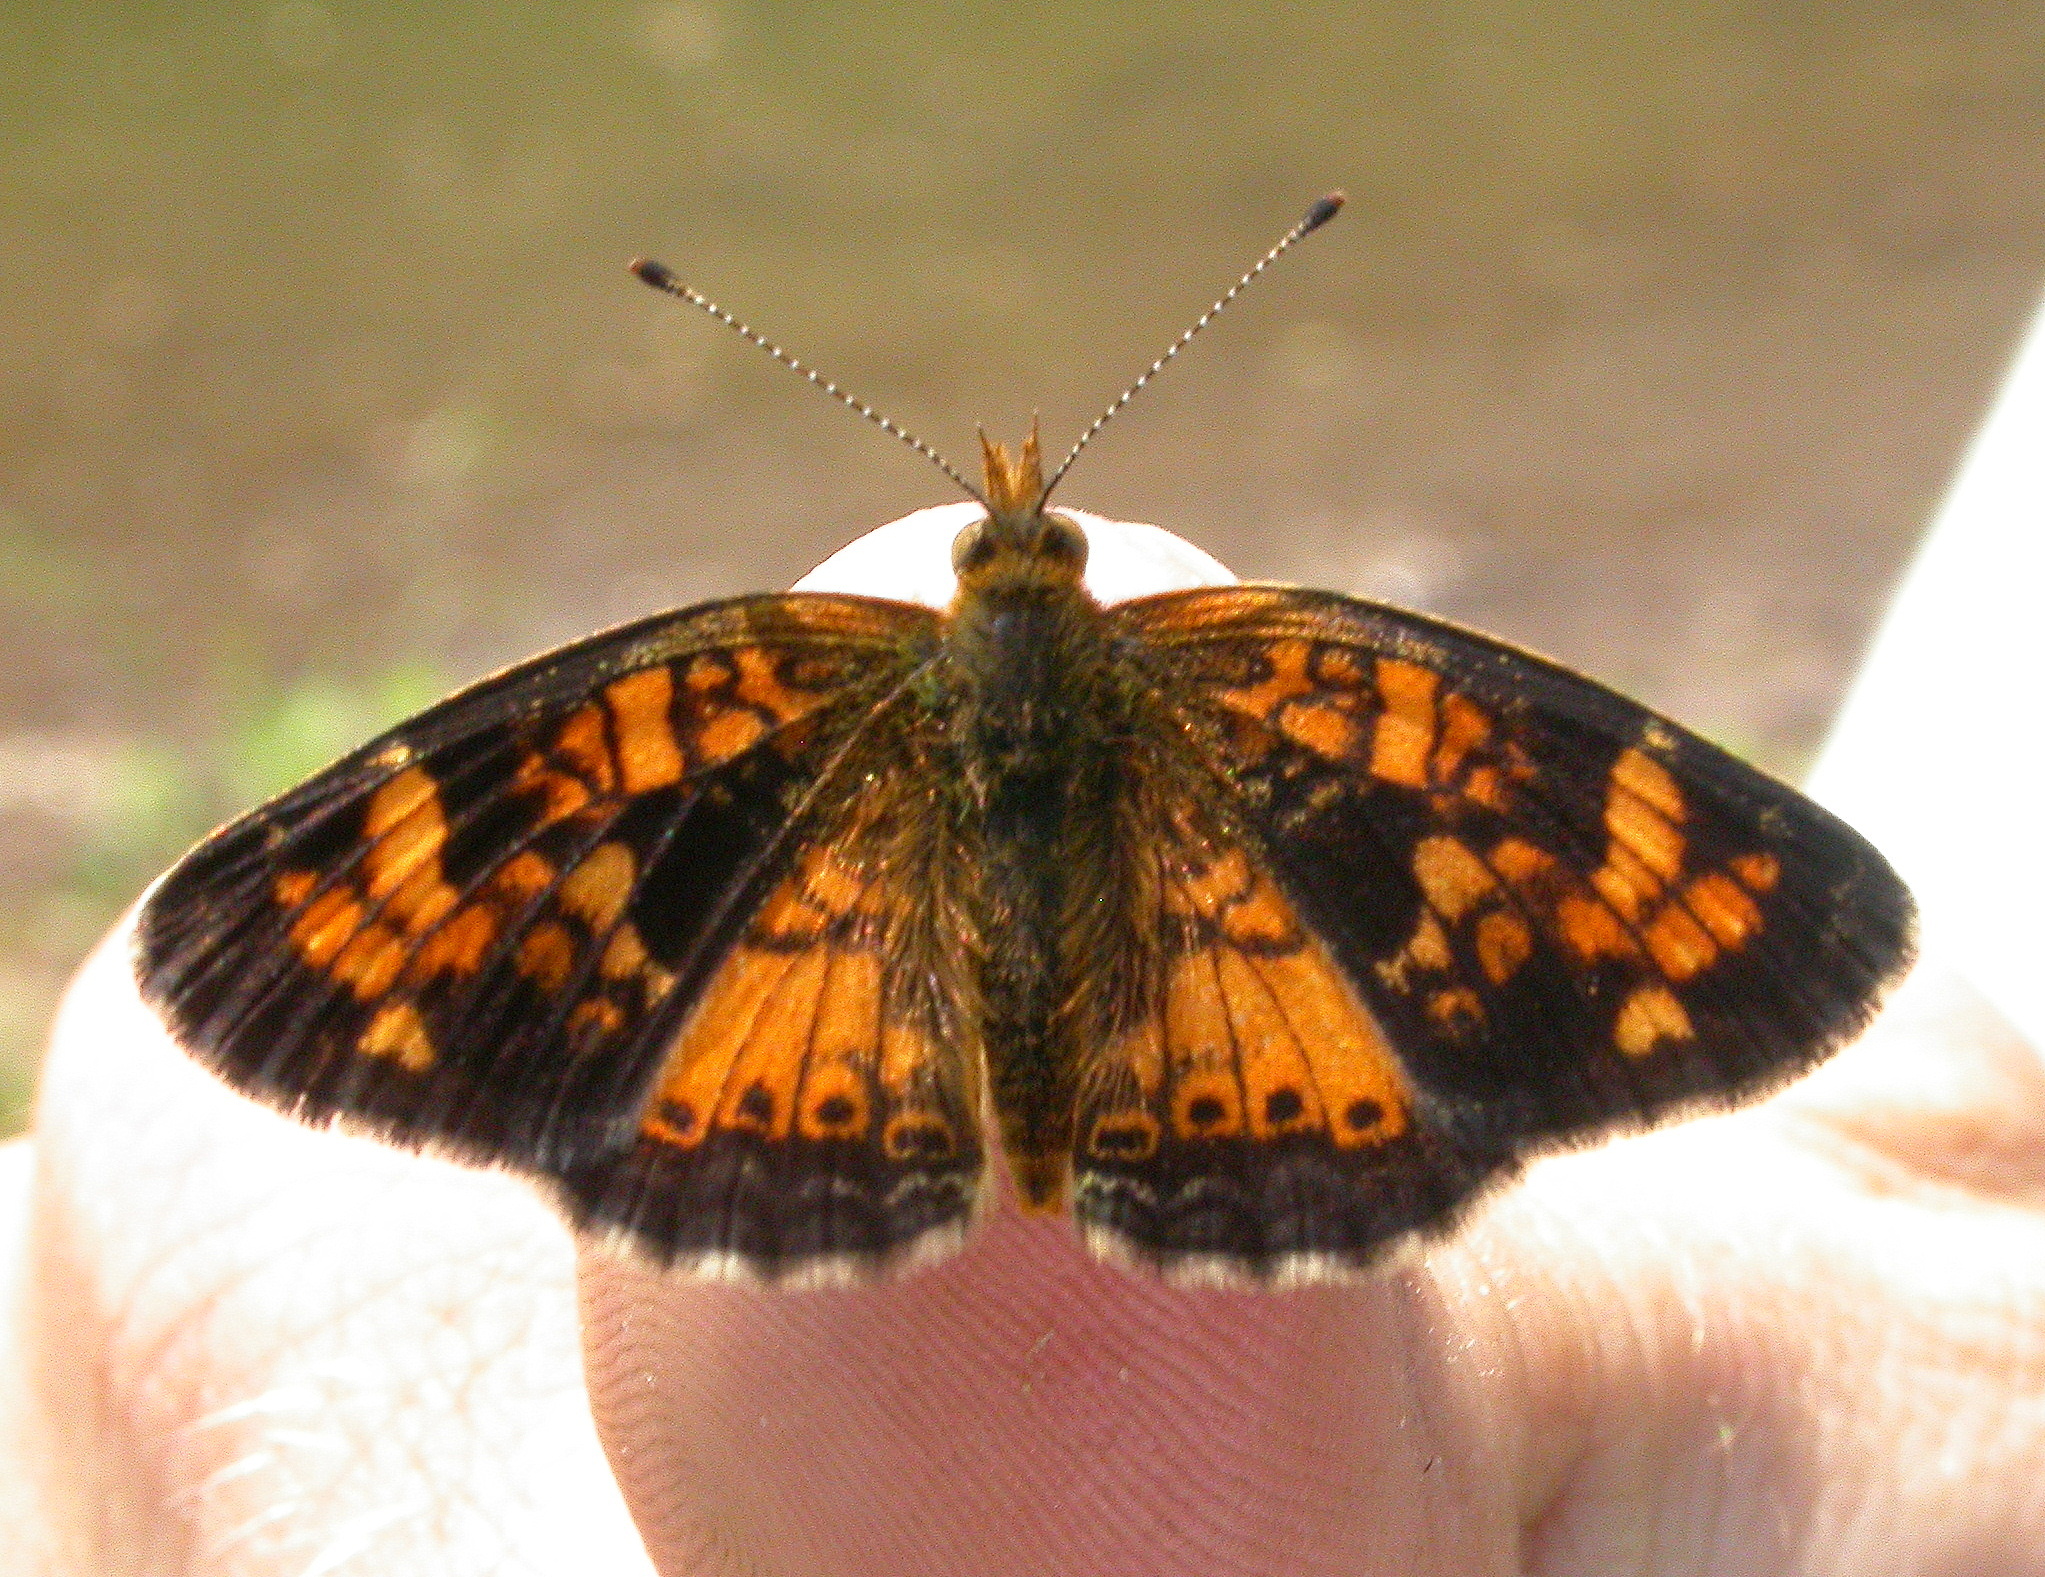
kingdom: Animalia
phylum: Arthropoda
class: Insecta
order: Lepidoptera
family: Nymphalidae
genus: Phyciodes
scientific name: Phyciodes batesii
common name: Tawny crescent
